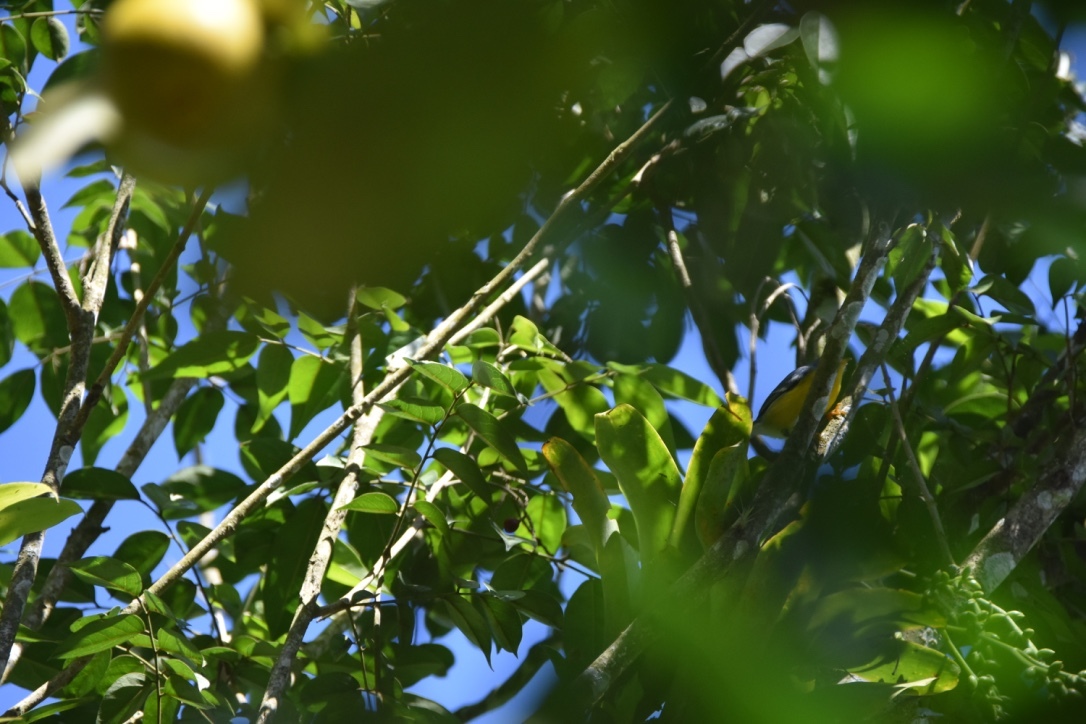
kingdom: Animalia
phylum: Chordata
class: Aves
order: Passeriformes
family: Parulidae
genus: Setophaga
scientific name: Setophaga pitiayumi
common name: Tropical parula
